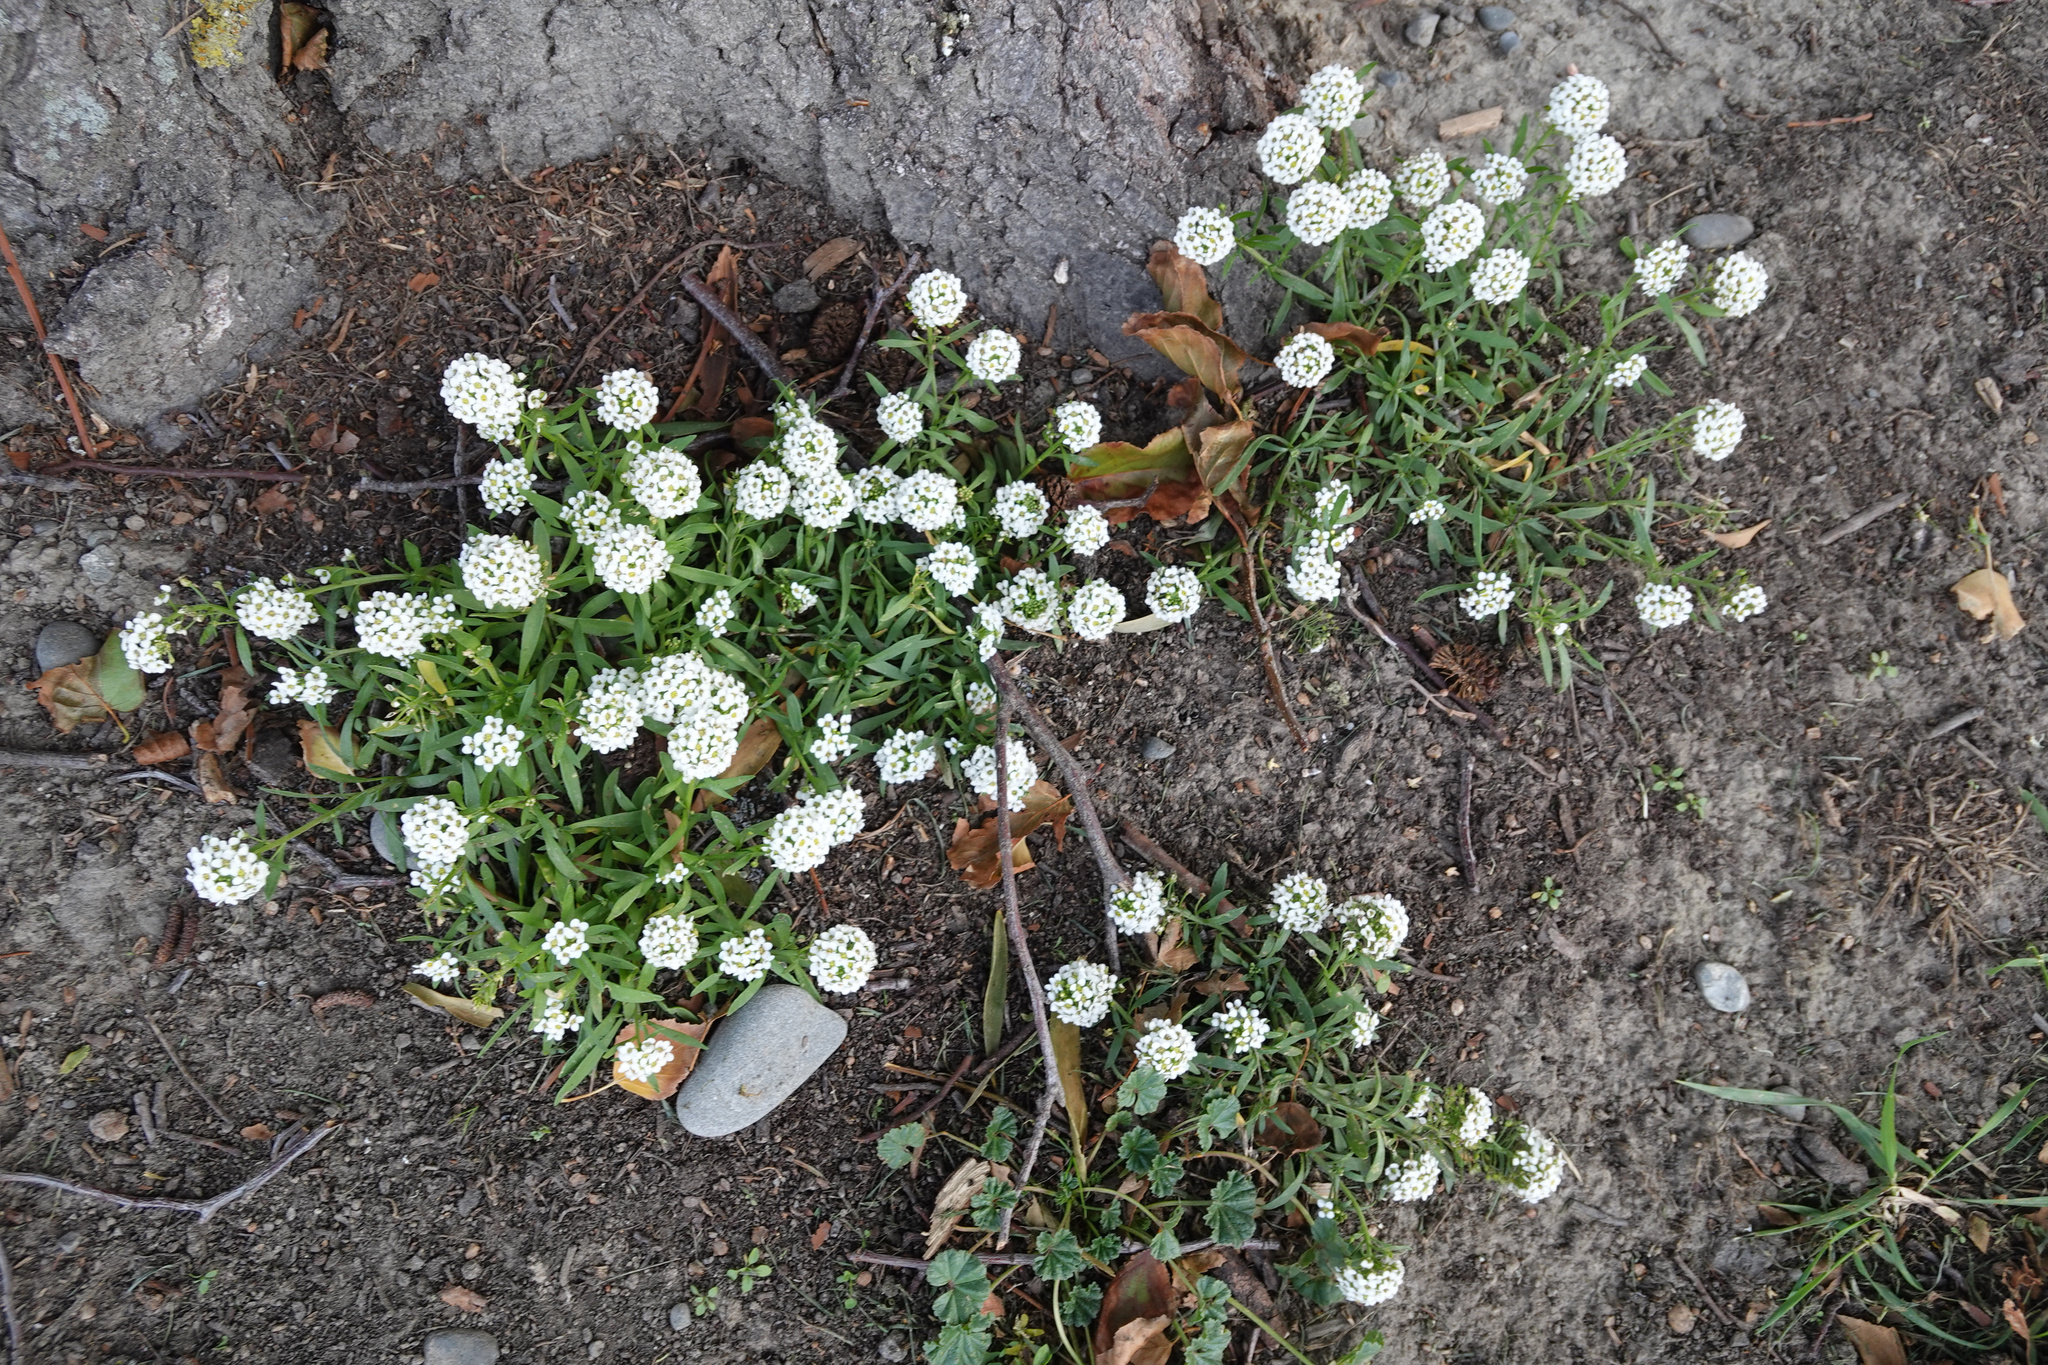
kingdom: Plantae
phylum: Tracheophyta
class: Magnoliopsida
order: Brassicales
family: Brassicaceae
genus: Lobularia
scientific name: Lobularia maritima
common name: Sweet alison
